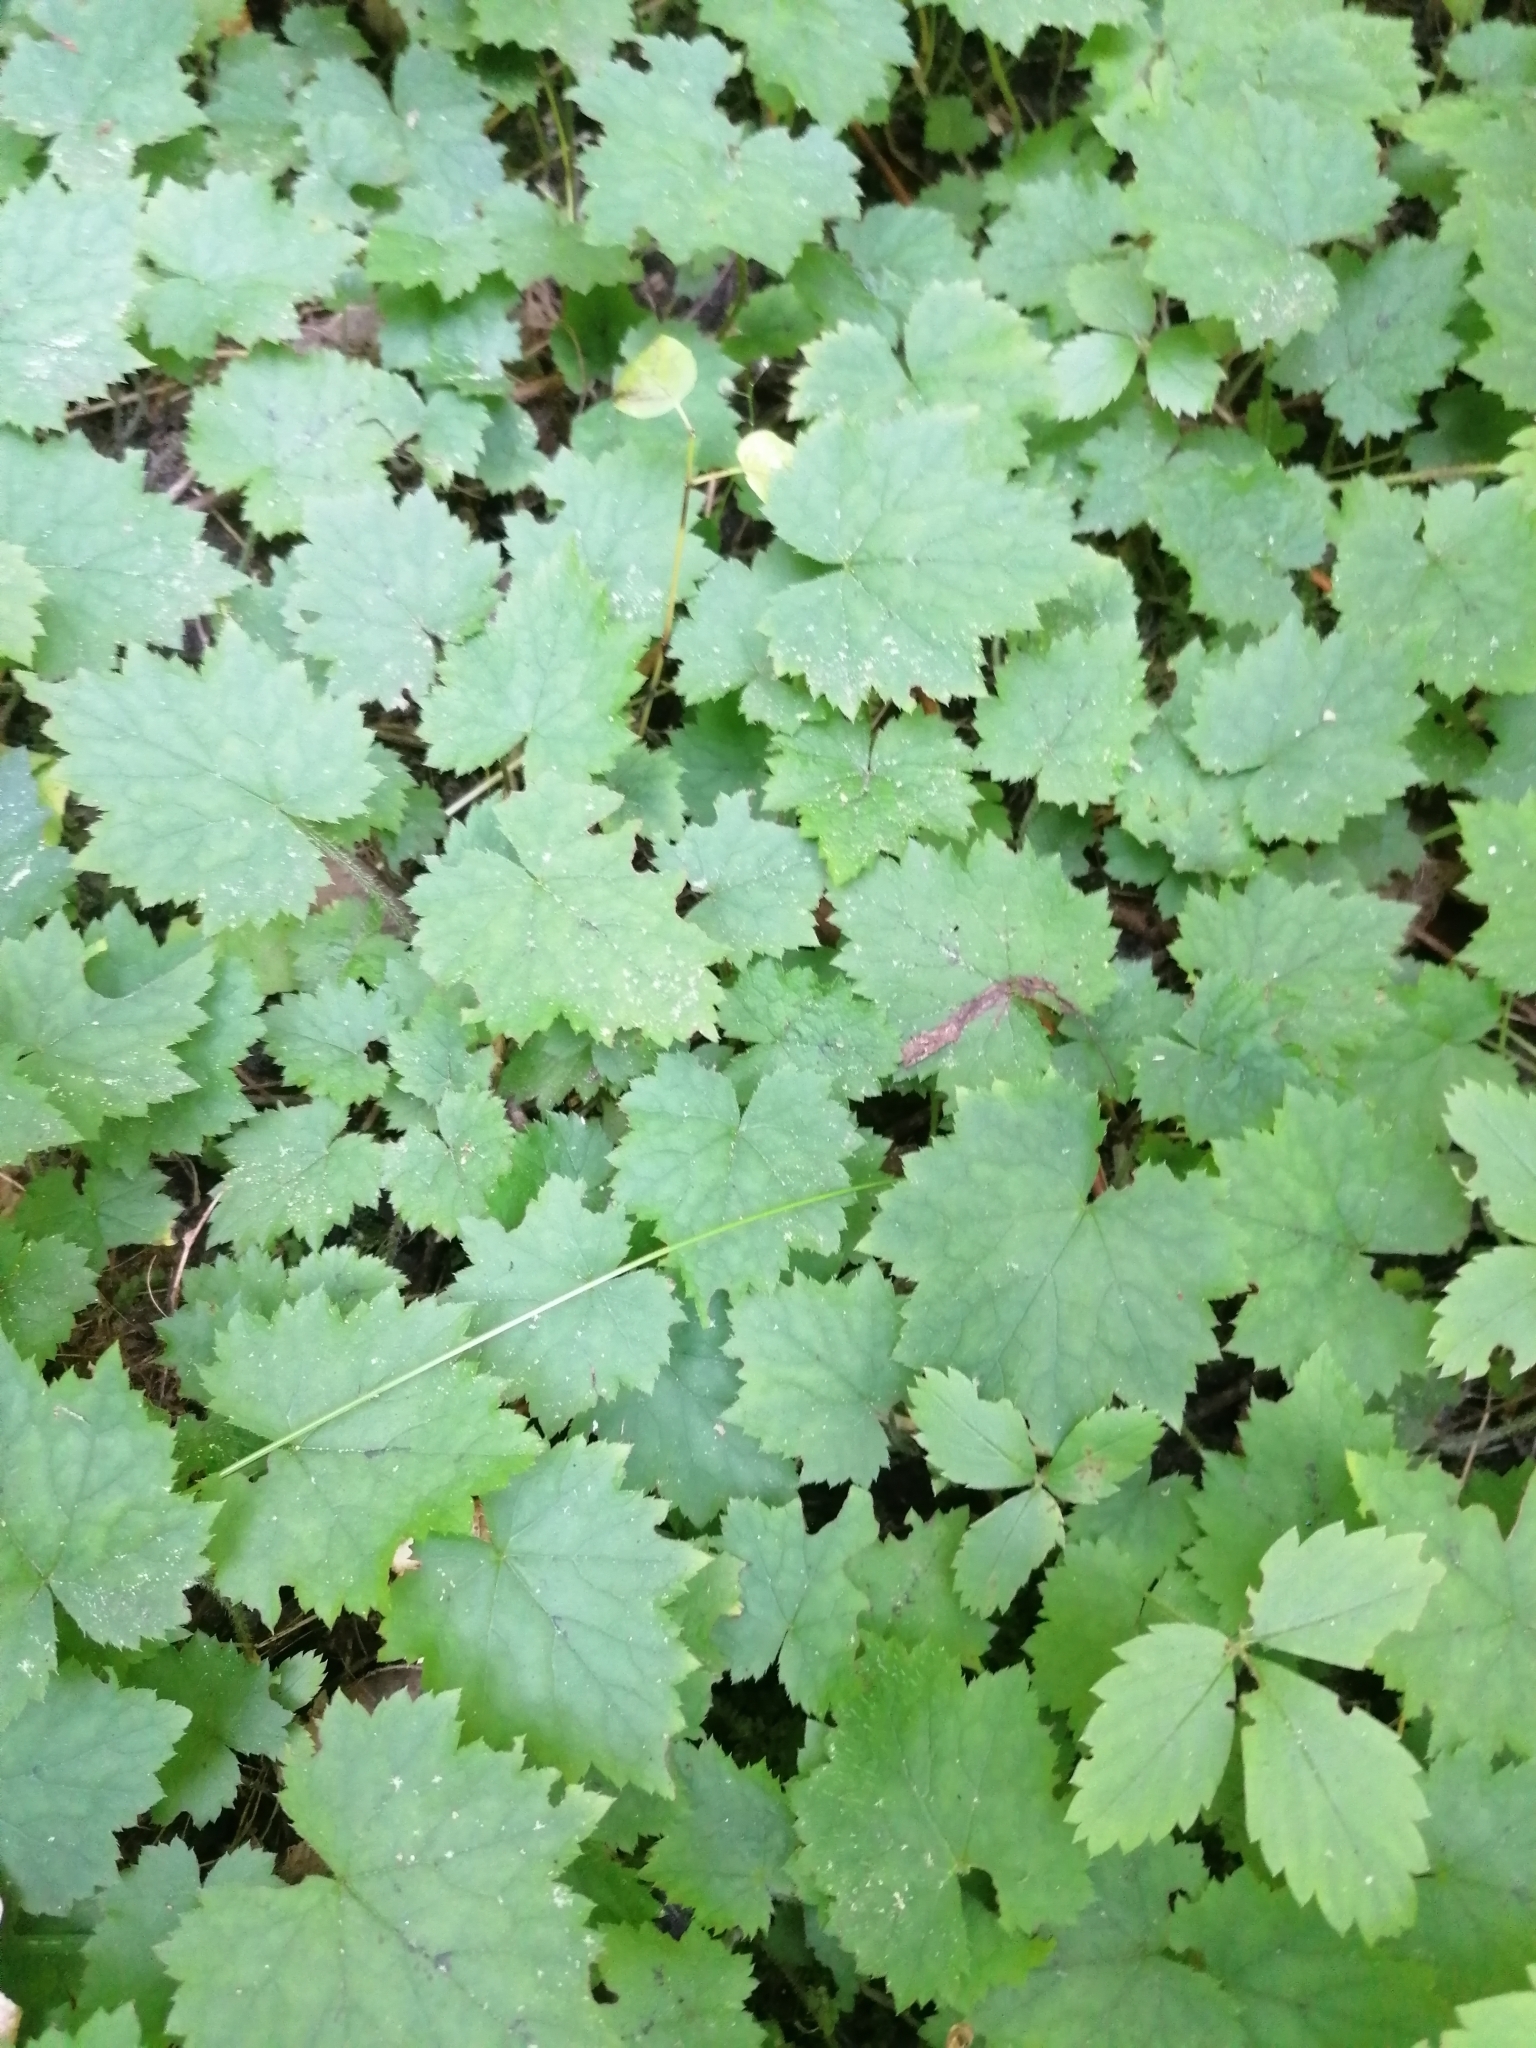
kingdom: Plantae
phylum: Tracheophyta
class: Magnoliopsida
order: Saxifragales
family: Saxifragaceae
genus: Tiarella
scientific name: Tiarella stolonifera
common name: Stoloniferous foamflower
